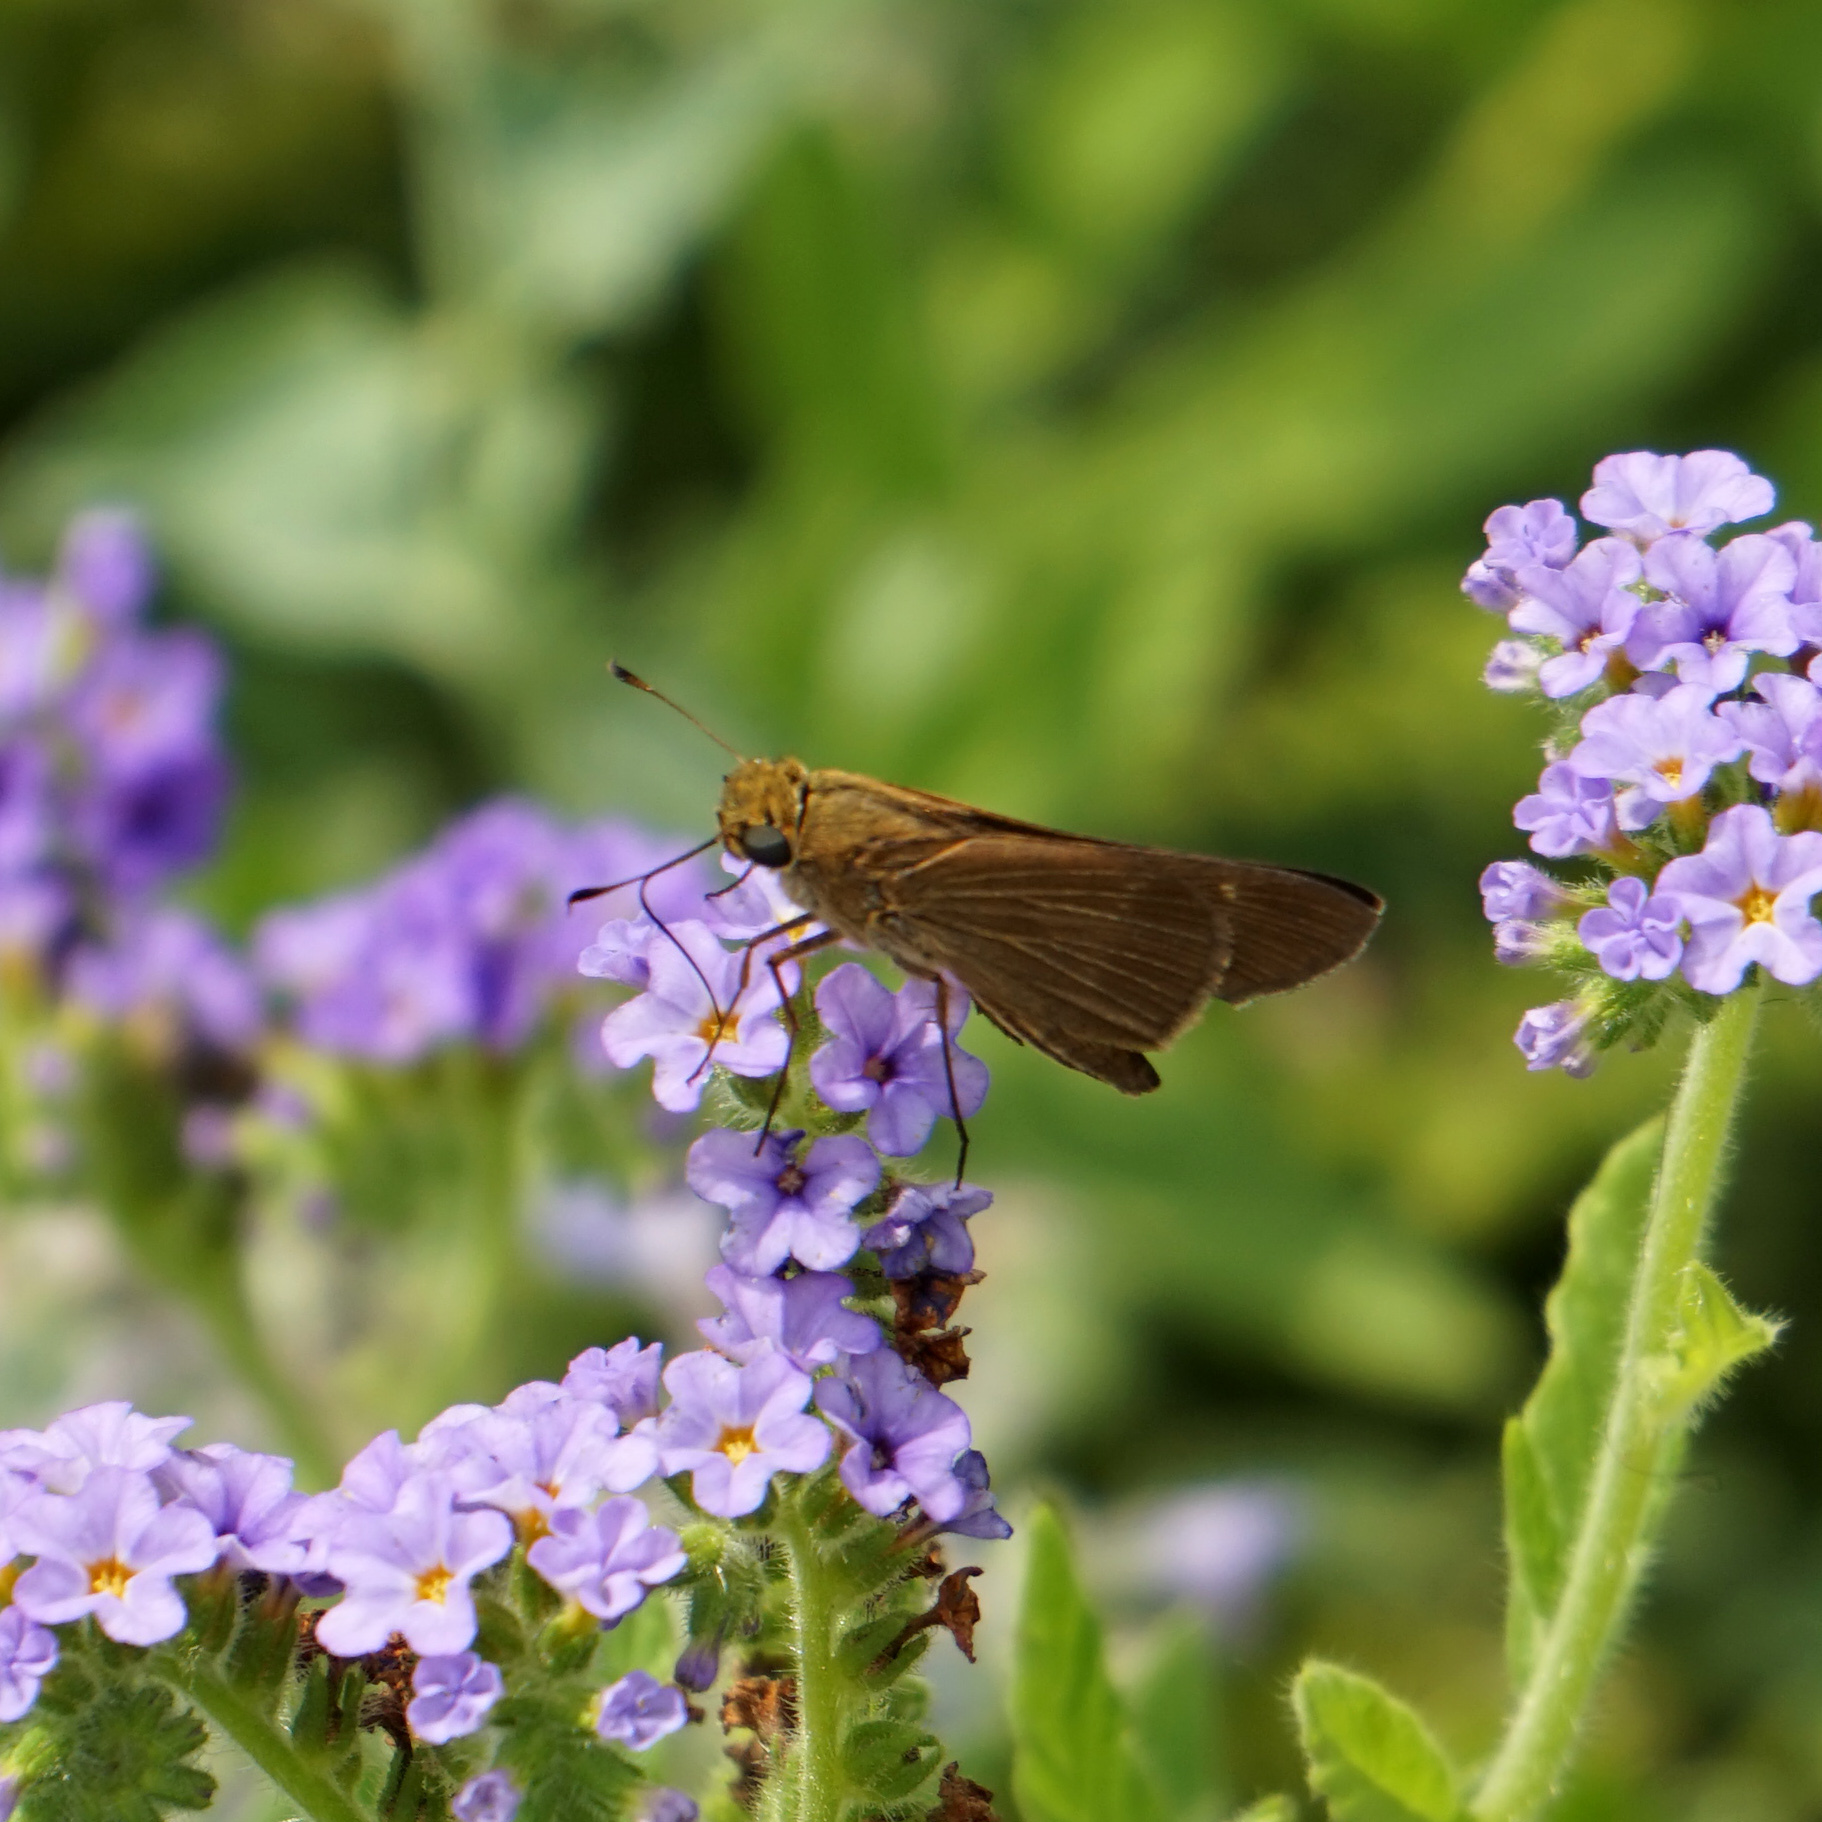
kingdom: Animalia
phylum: Arthropoda
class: Insecta
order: Lepidoptera
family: Hesperiidae
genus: Panoquina
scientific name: Panoquina ocola
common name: Ocola skipper
